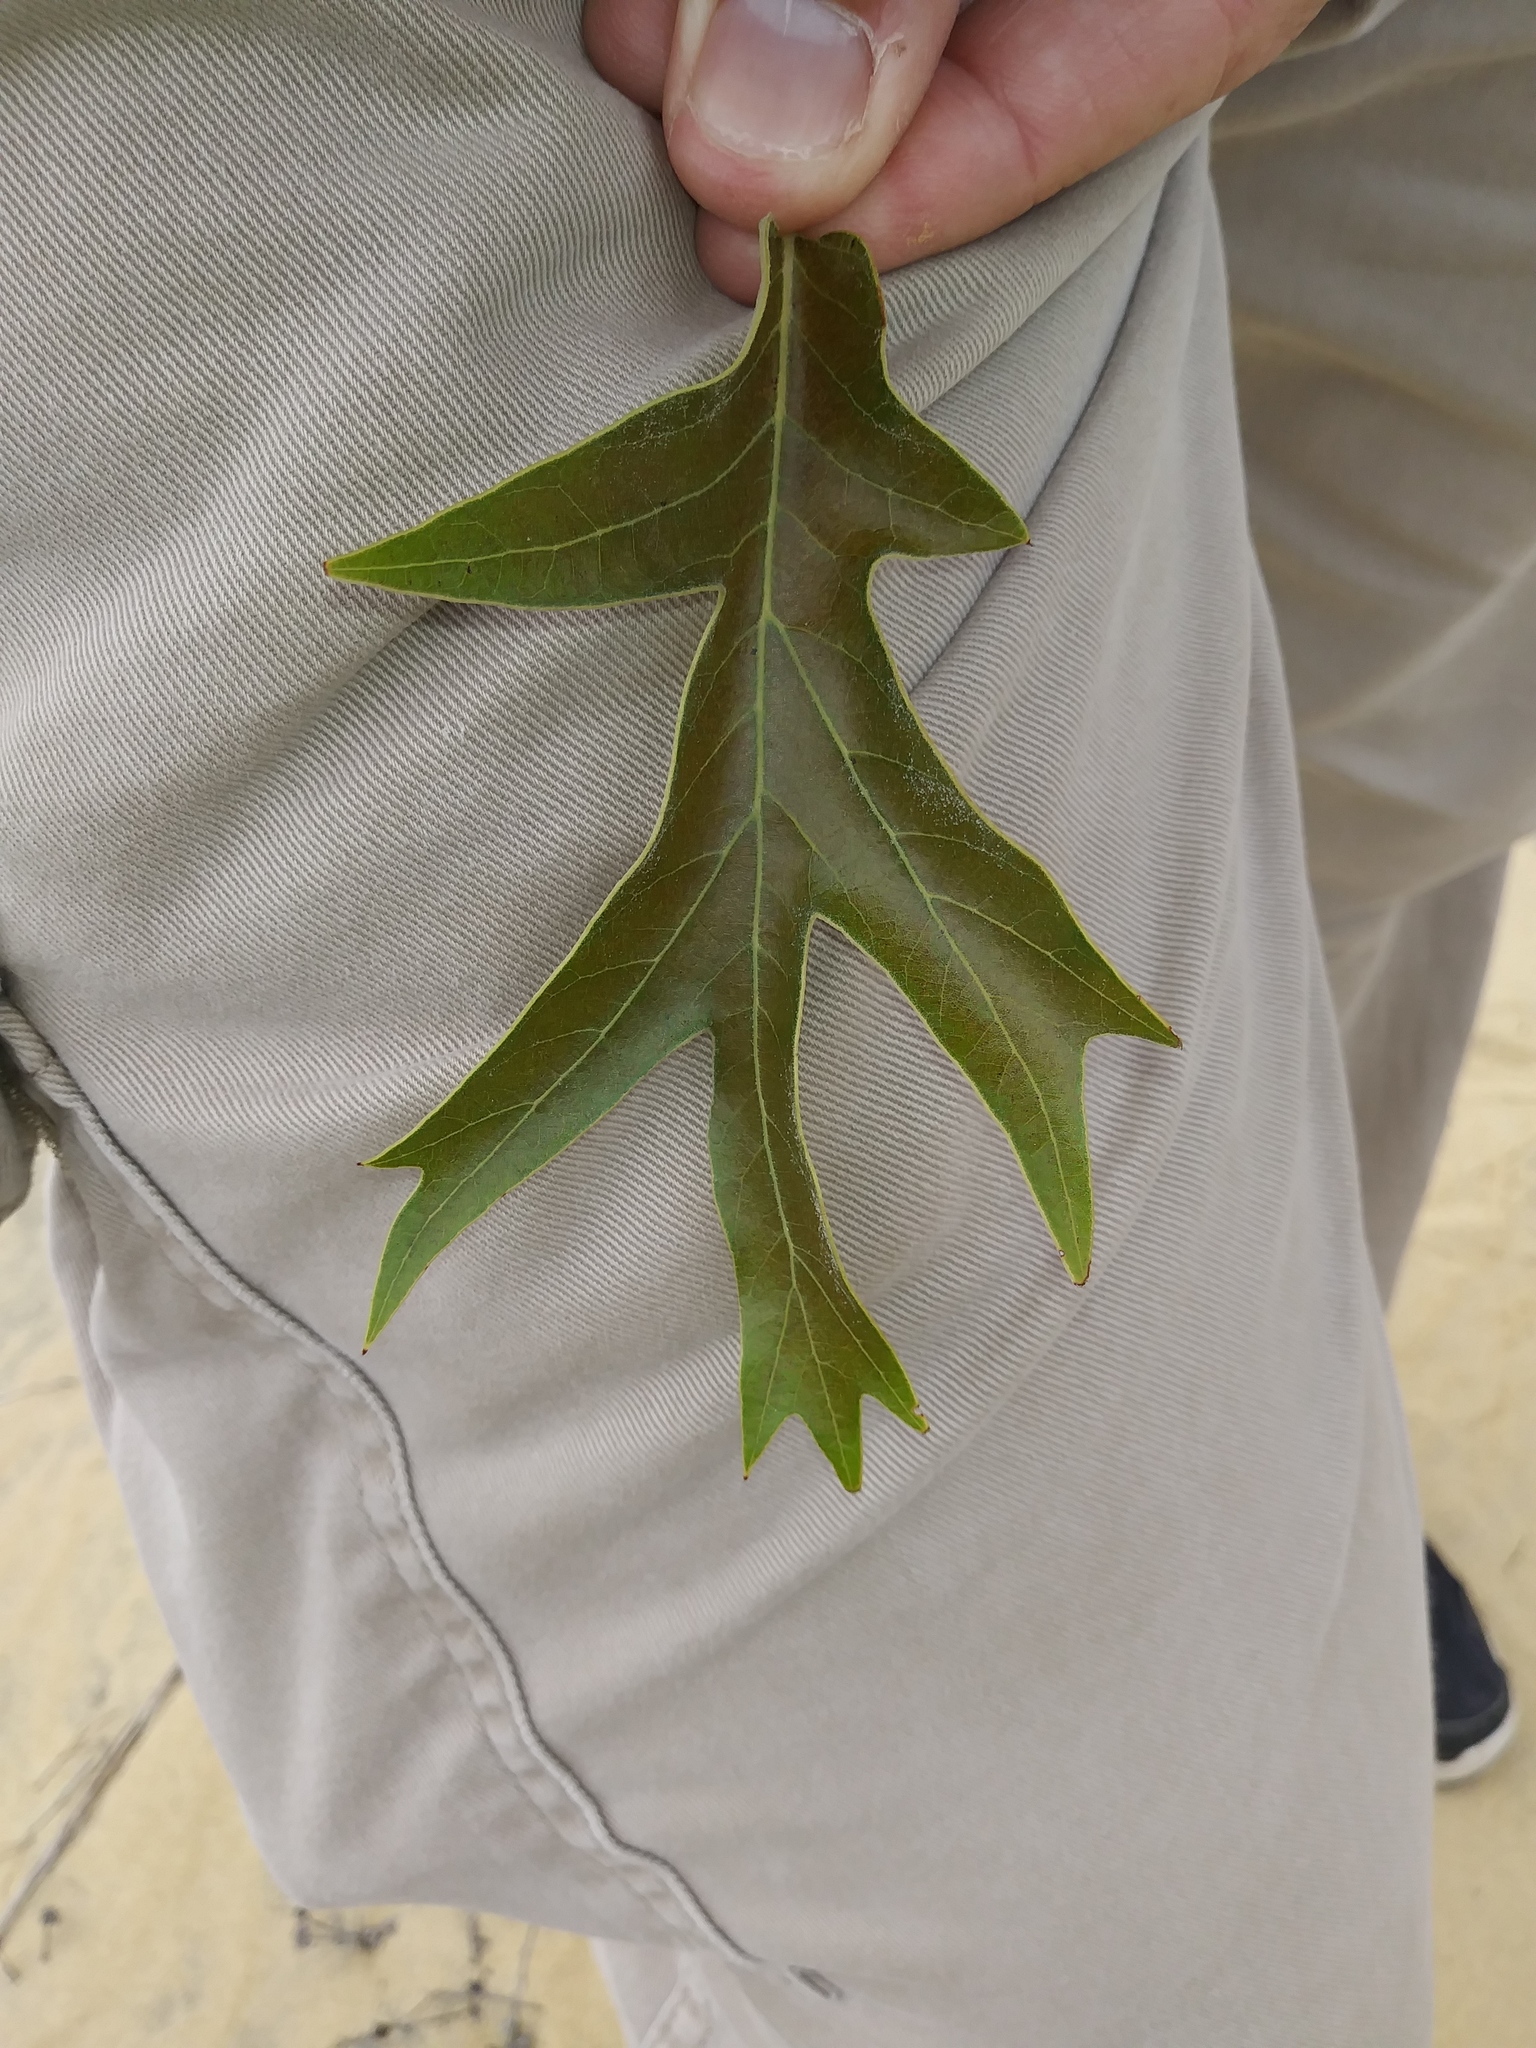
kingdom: Plantae
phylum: Tracheophyta
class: Magnoliopsida
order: Fagales
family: Fagaceae
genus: Quercus
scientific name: Quercus falcata
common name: Southern red oak
